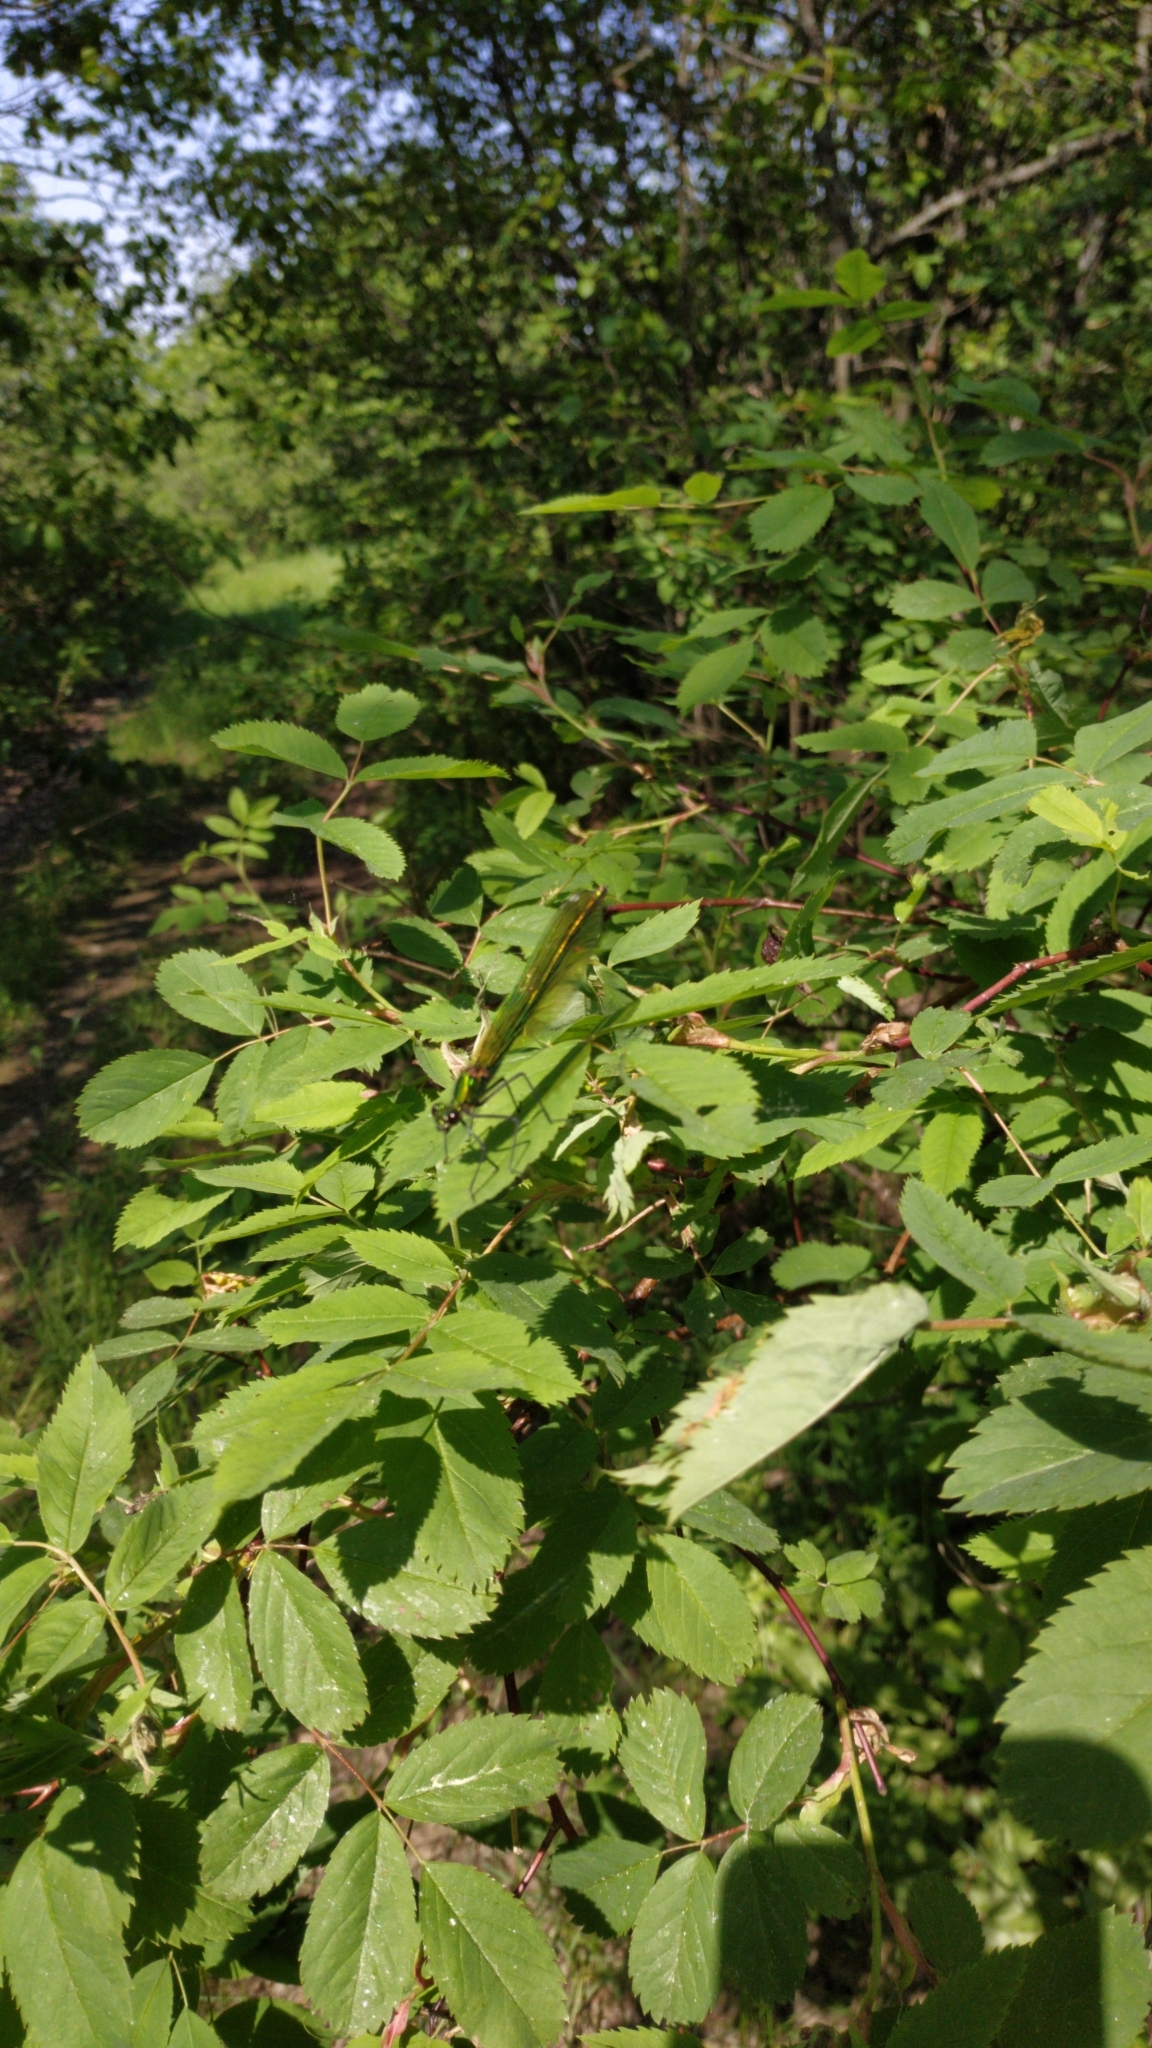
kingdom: Animalia
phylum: Arthropoda
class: Insecta
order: Odonata
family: Calopterygidae
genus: Calopteryx
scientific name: Calopteryx splendens
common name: Banded demoiselle
